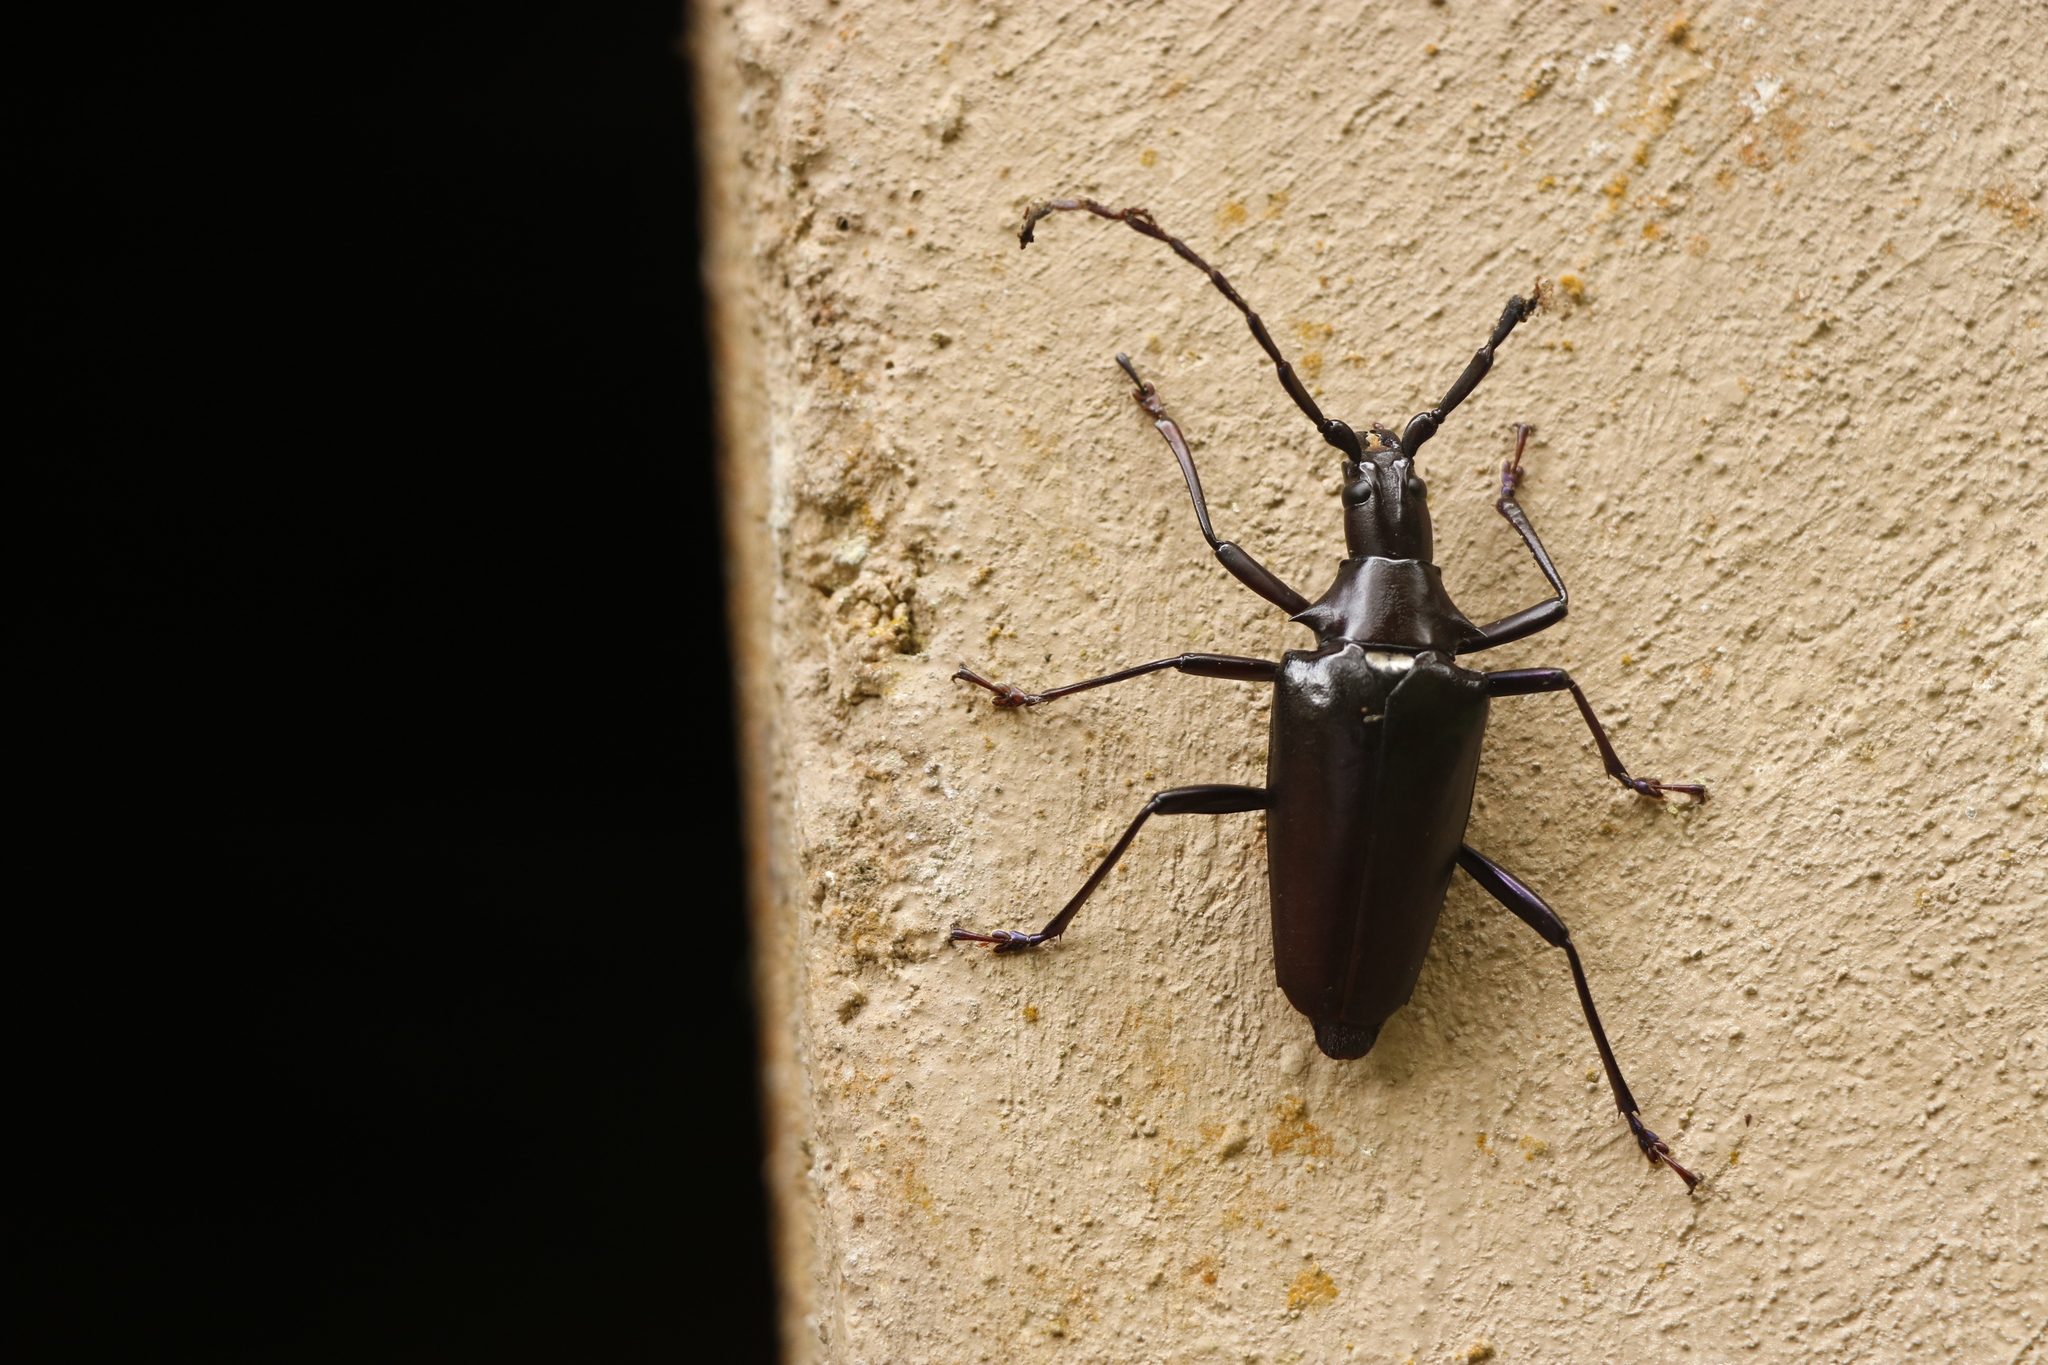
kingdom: Animalia
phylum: Arthropoda
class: Insecta
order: Coleoptera
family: Cerambycidae
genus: Insuetaspis
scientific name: Insuetaspis paradoxa
